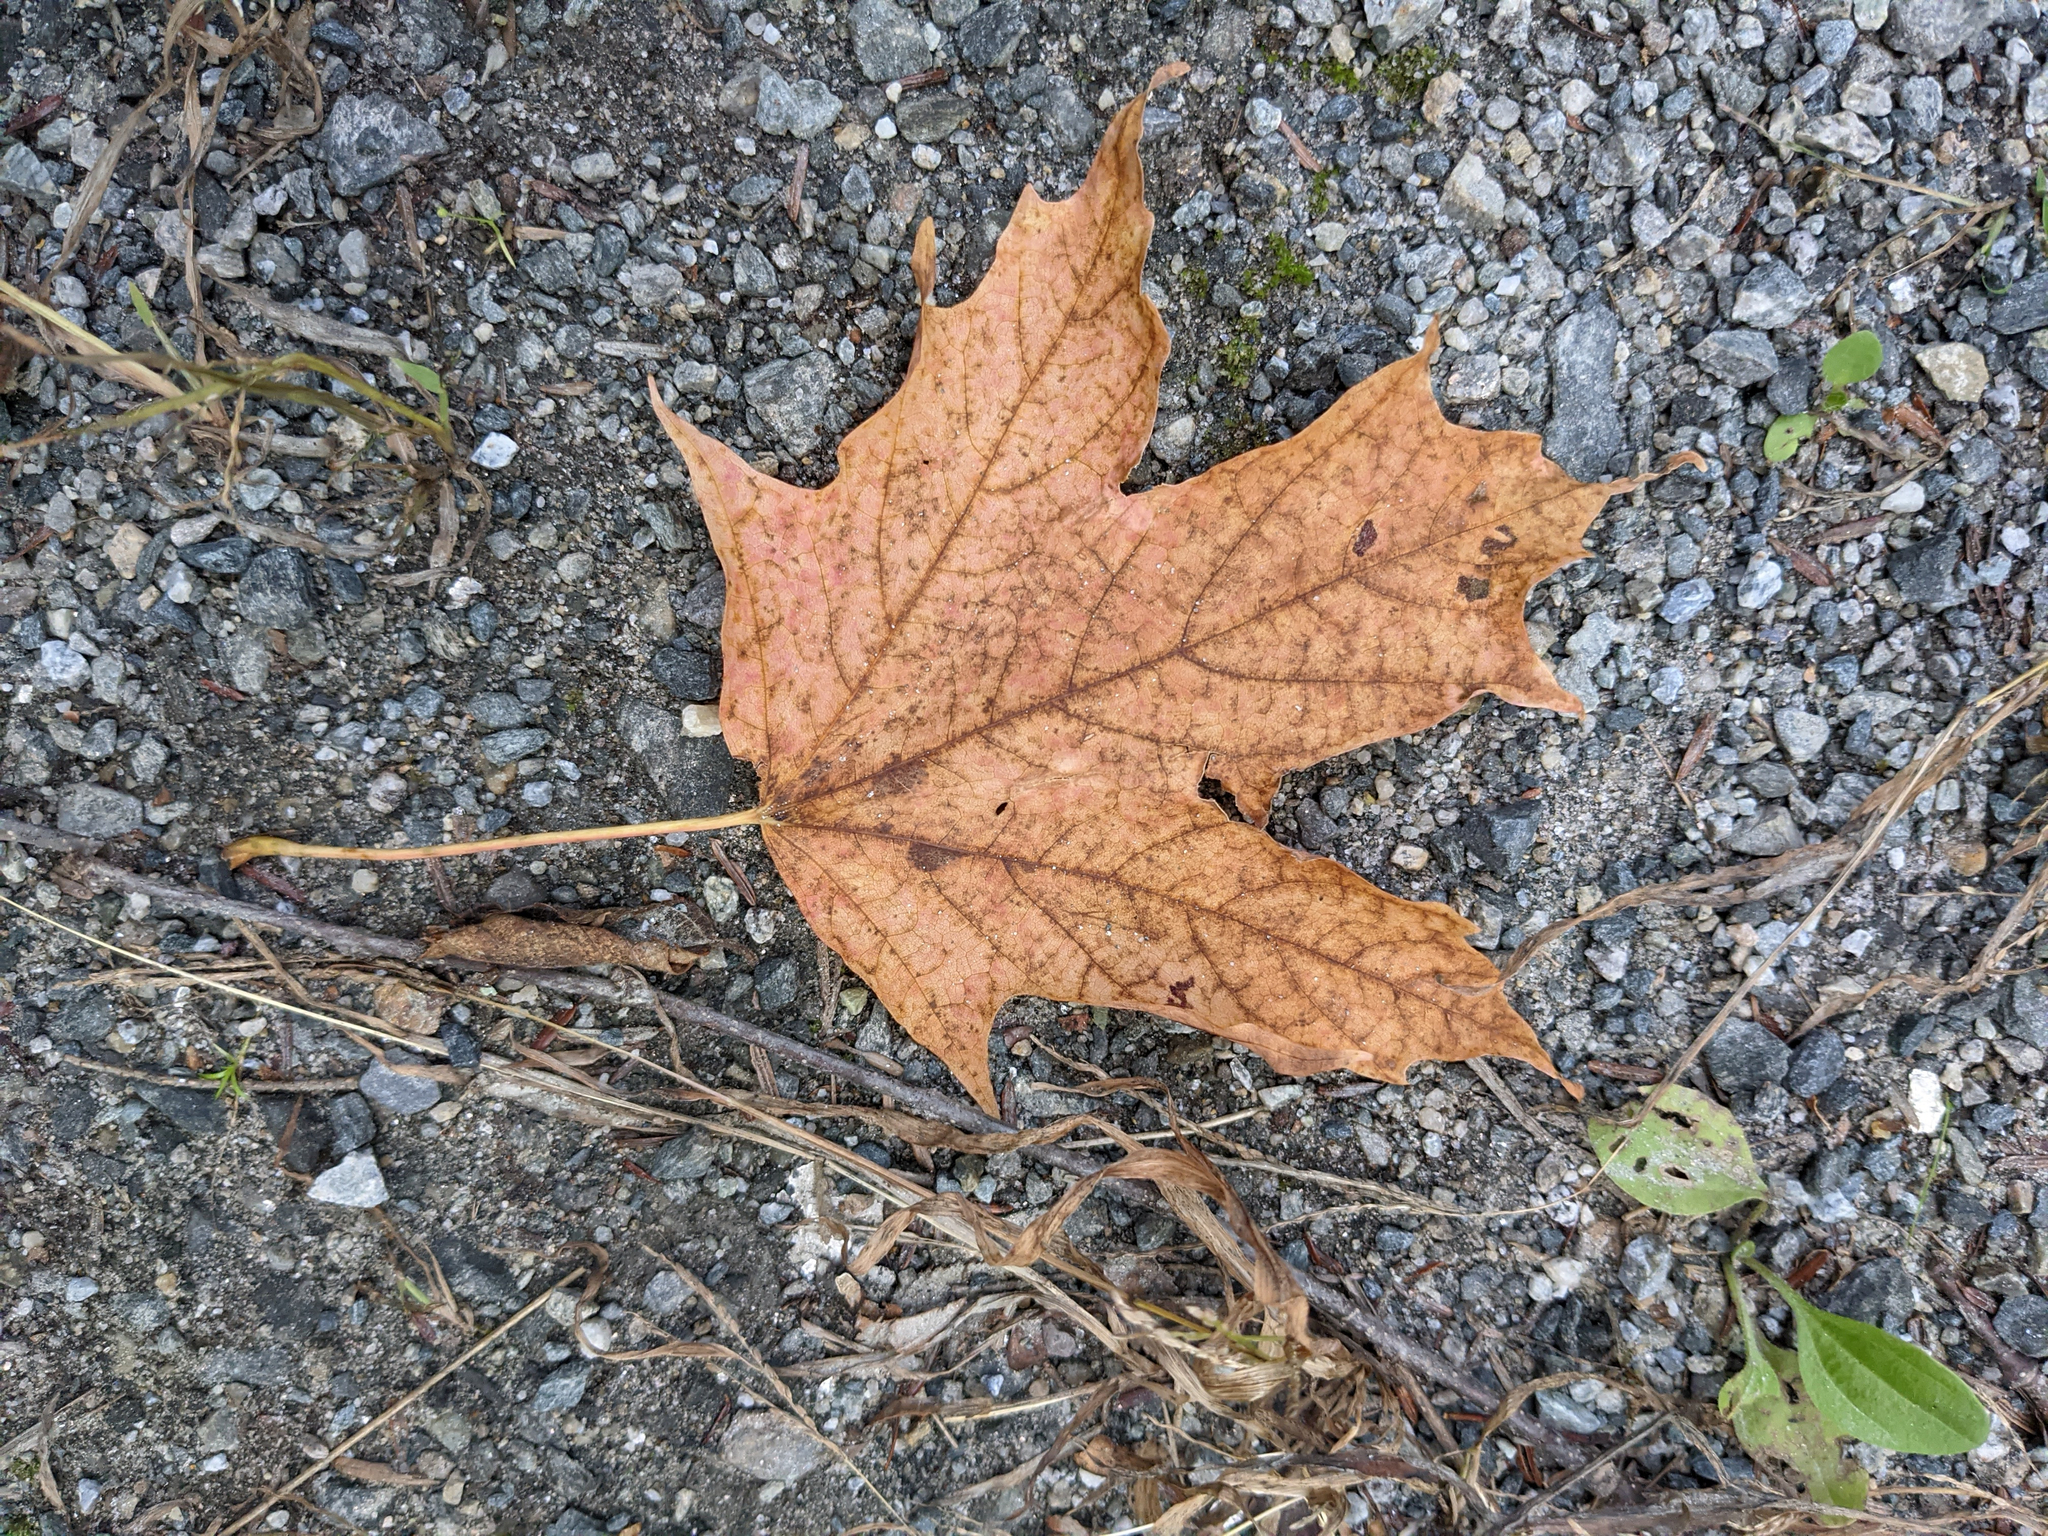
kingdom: Plantae
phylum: Tracheophyta
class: Magnoliopsida
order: Sapindales
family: Sapindaceae
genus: Acer
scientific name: Acer saccharum
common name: Sugar maple
